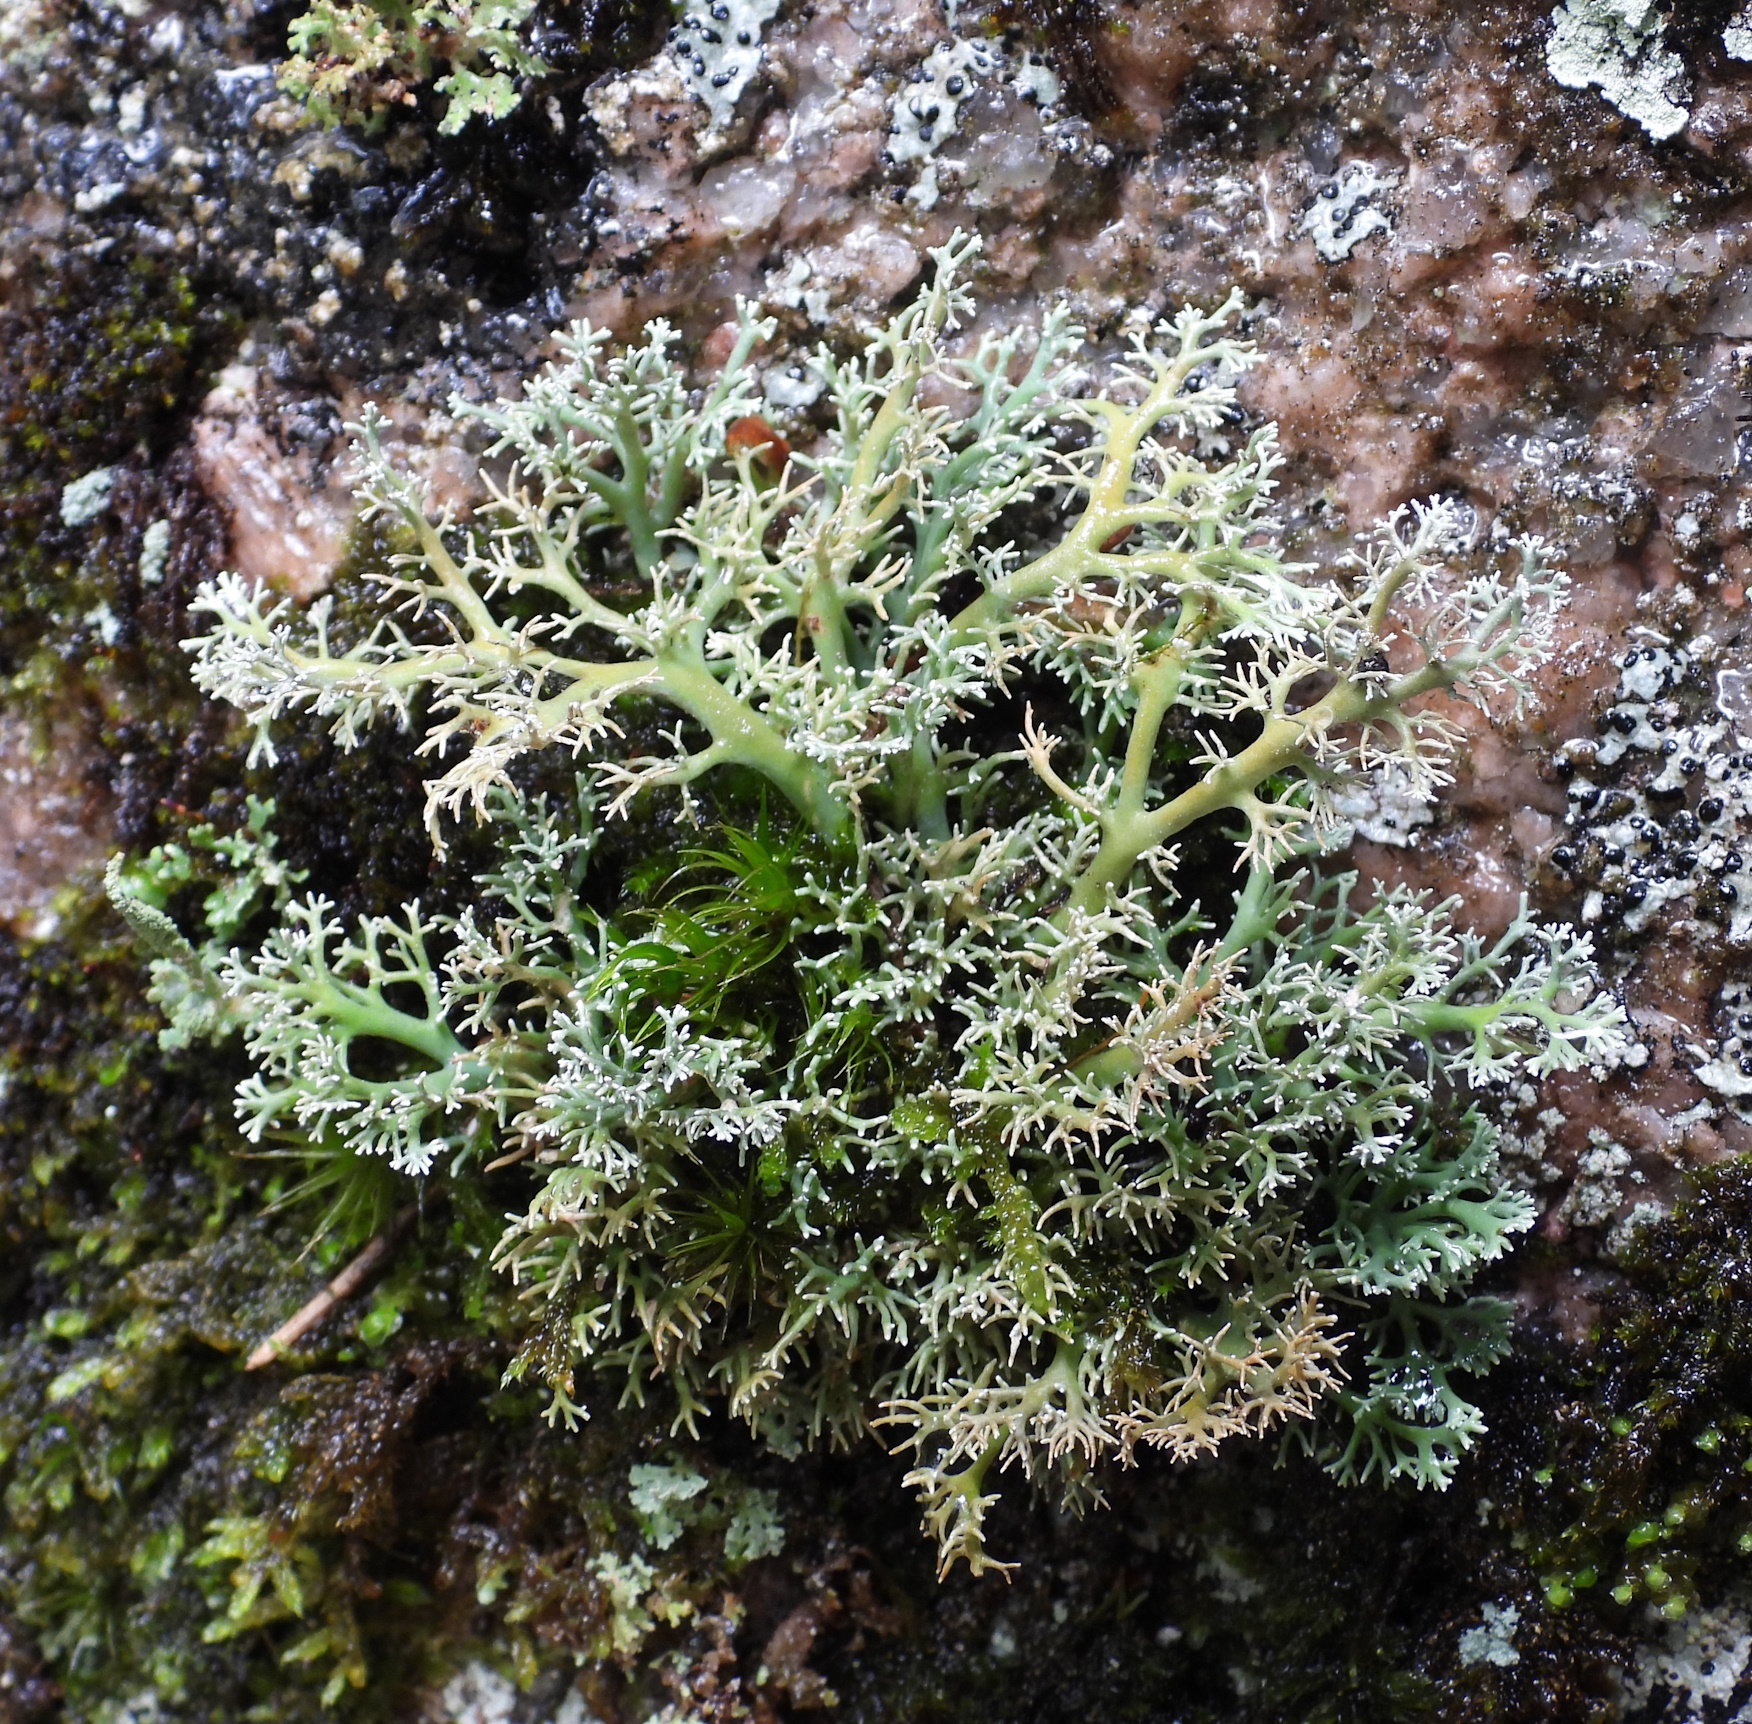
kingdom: Fungi
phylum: Ascomycota
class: Lecanoromycetes
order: Lecanorales
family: Sphaerophoraceae
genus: Sphaerophorus
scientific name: Sphaerophorus globosus
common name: Globe ball lichen
